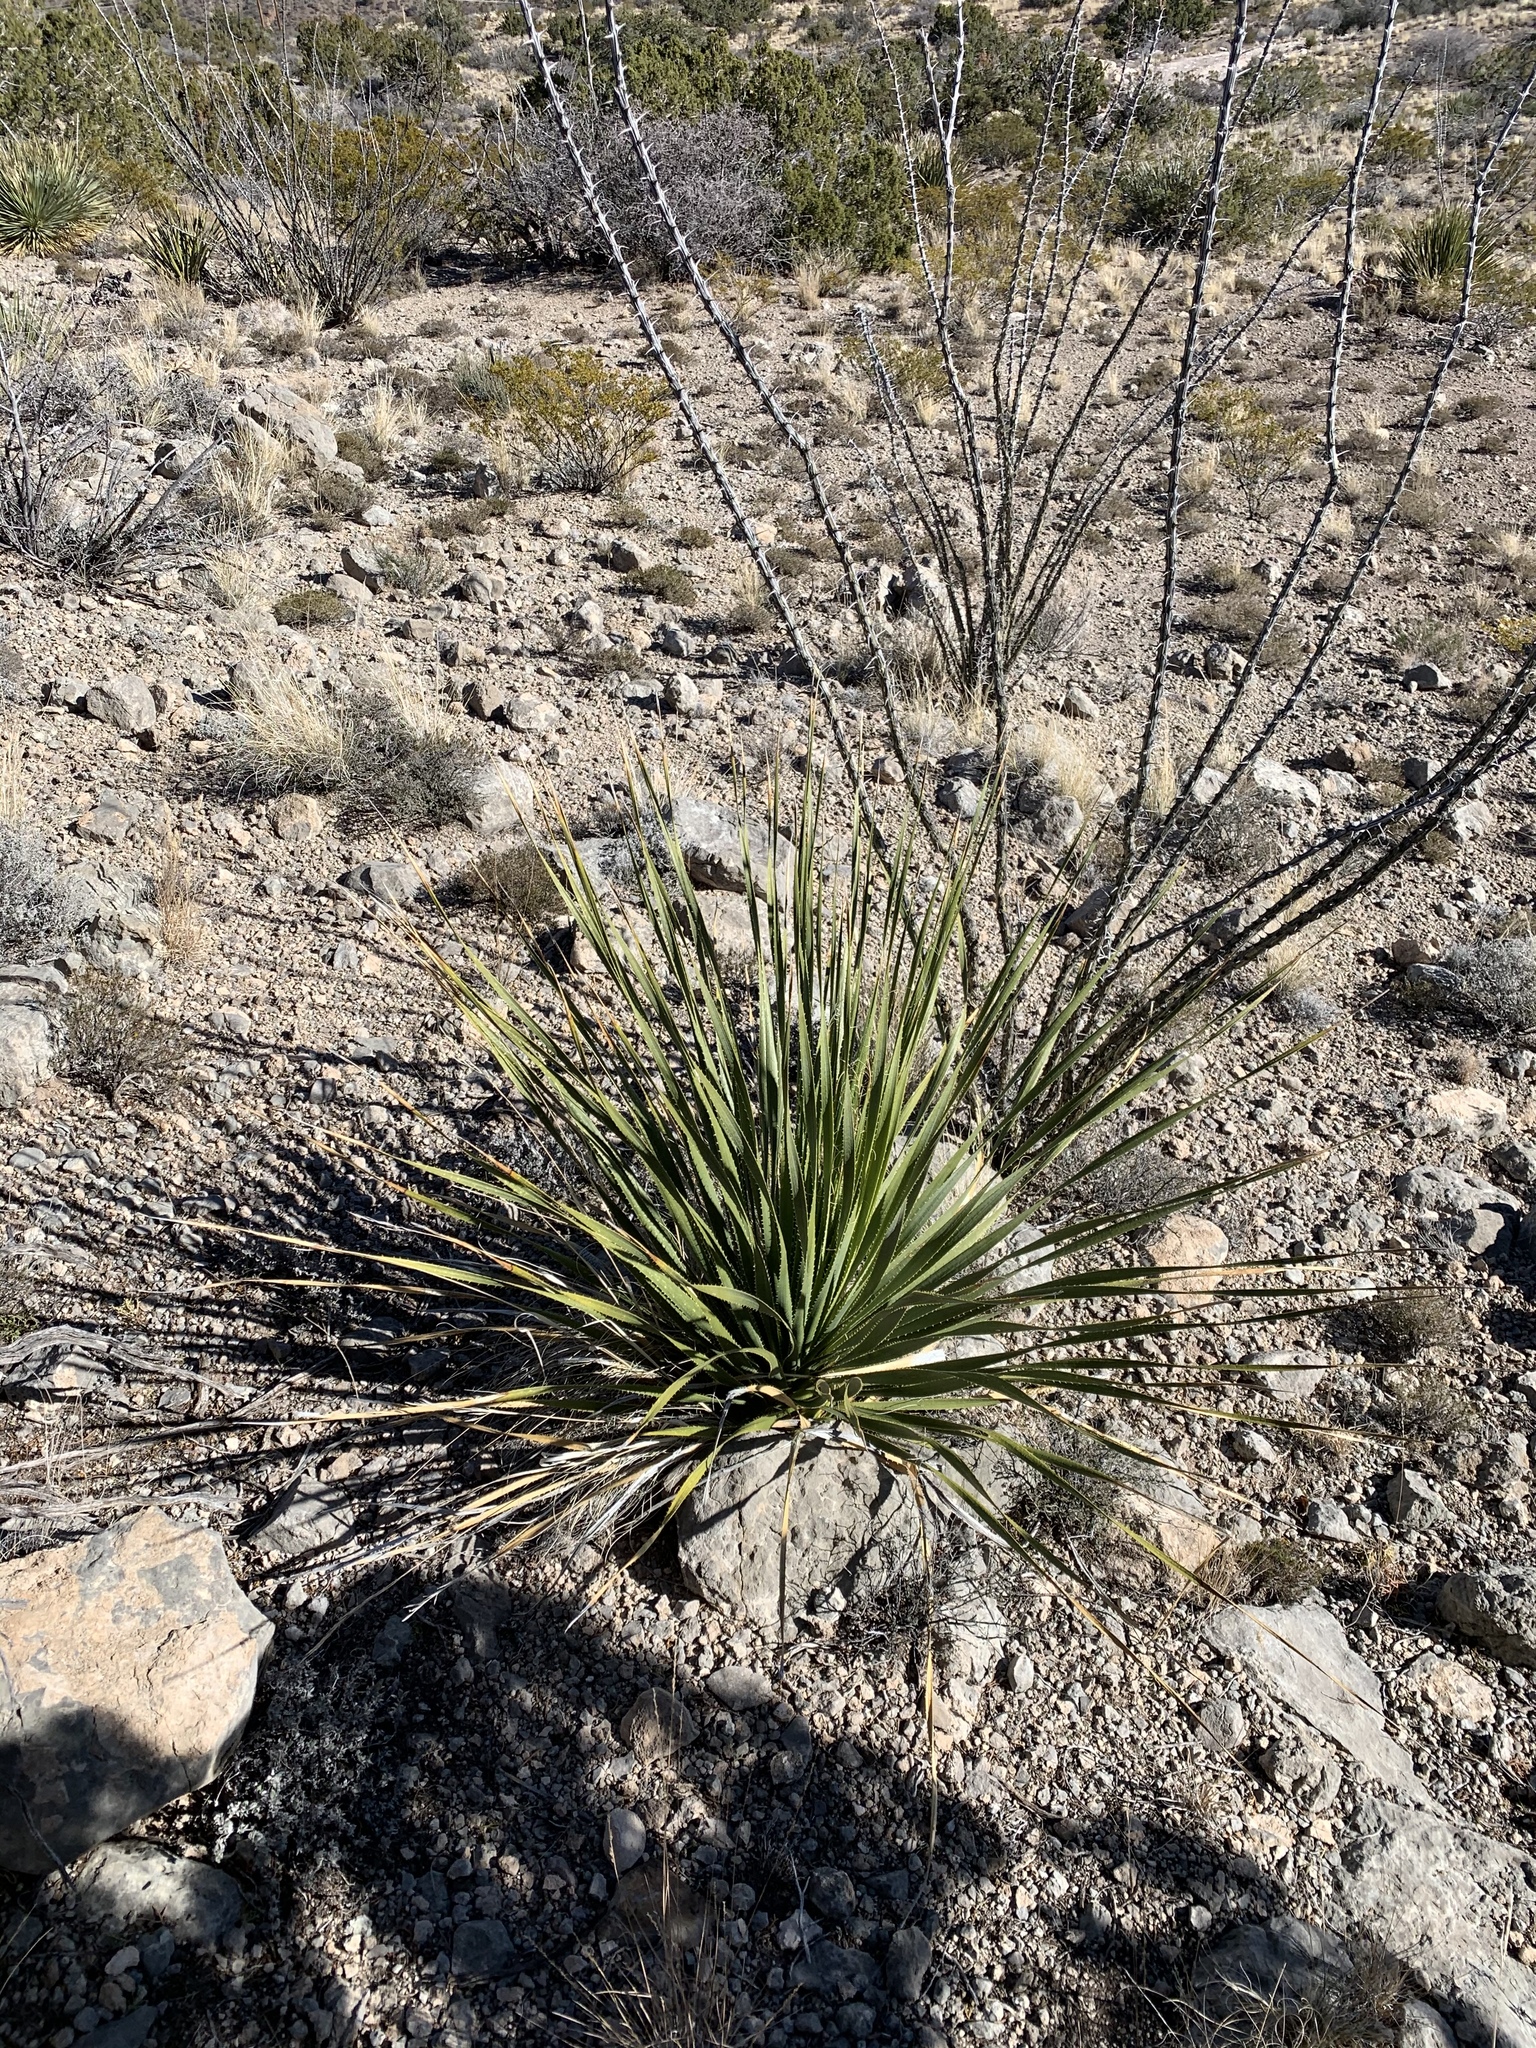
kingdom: Plantae
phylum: Tracheophyta
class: Liliopsida
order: Asparagales
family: Asparagaceae
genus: Dasylirion
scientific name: Dasylirion wheeleri
